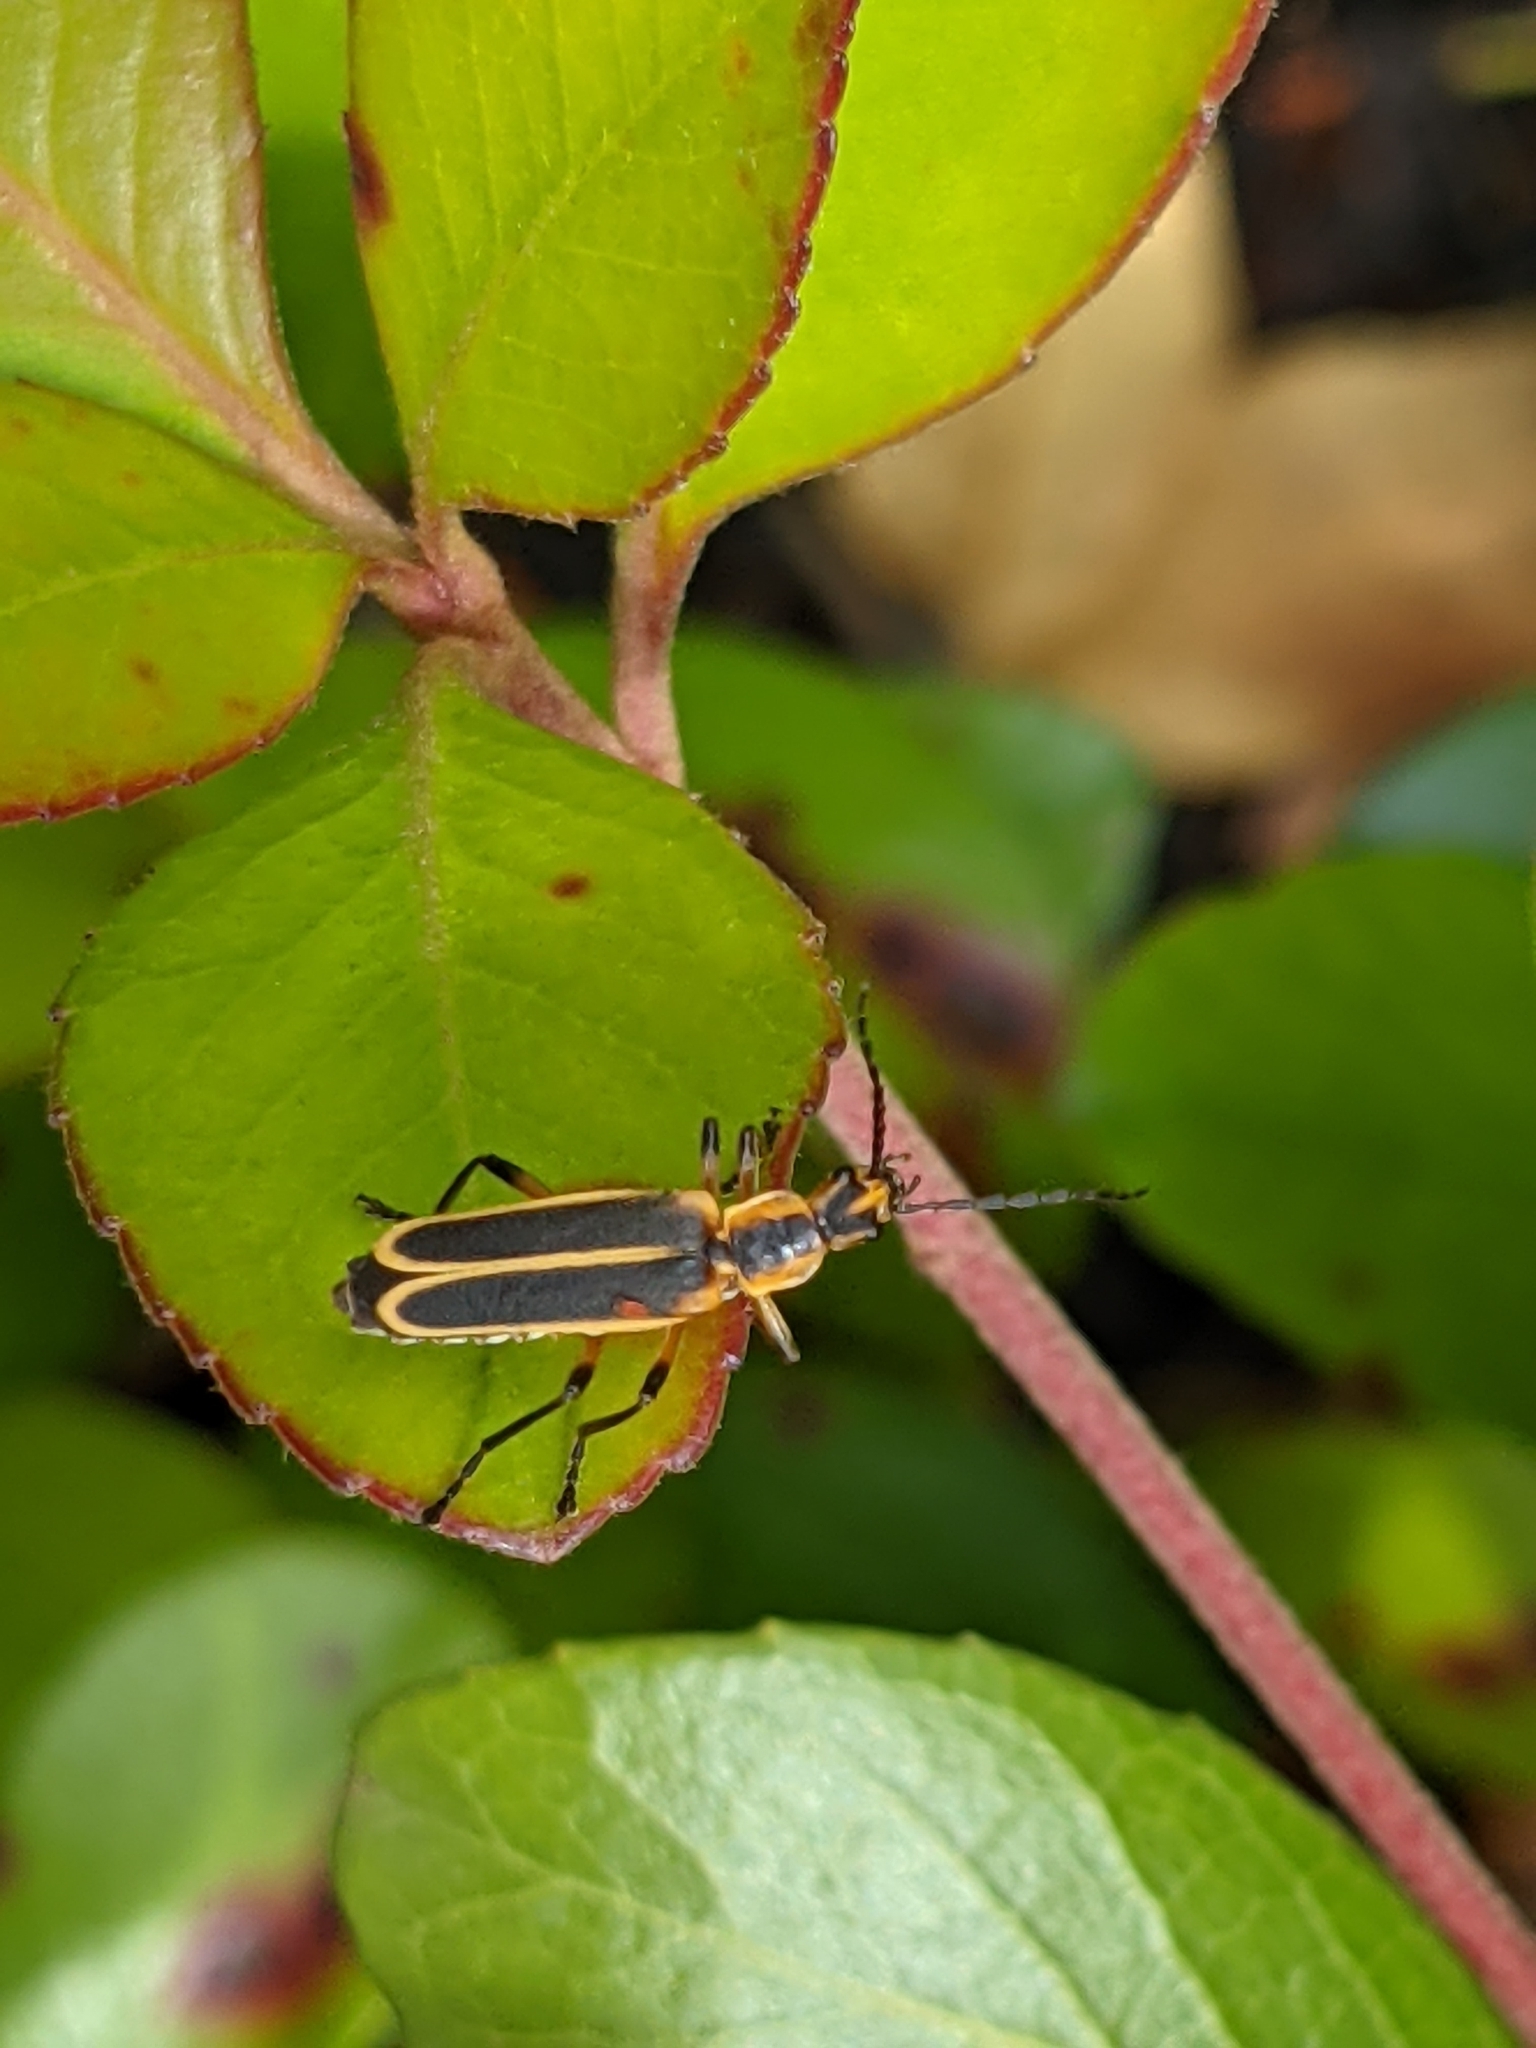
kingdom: Animalia
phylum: Arthropoda
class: Insecta
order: Coleoptera
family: Cantharidae
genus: Chauliognathus
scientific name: Chauliognathus marginatus
